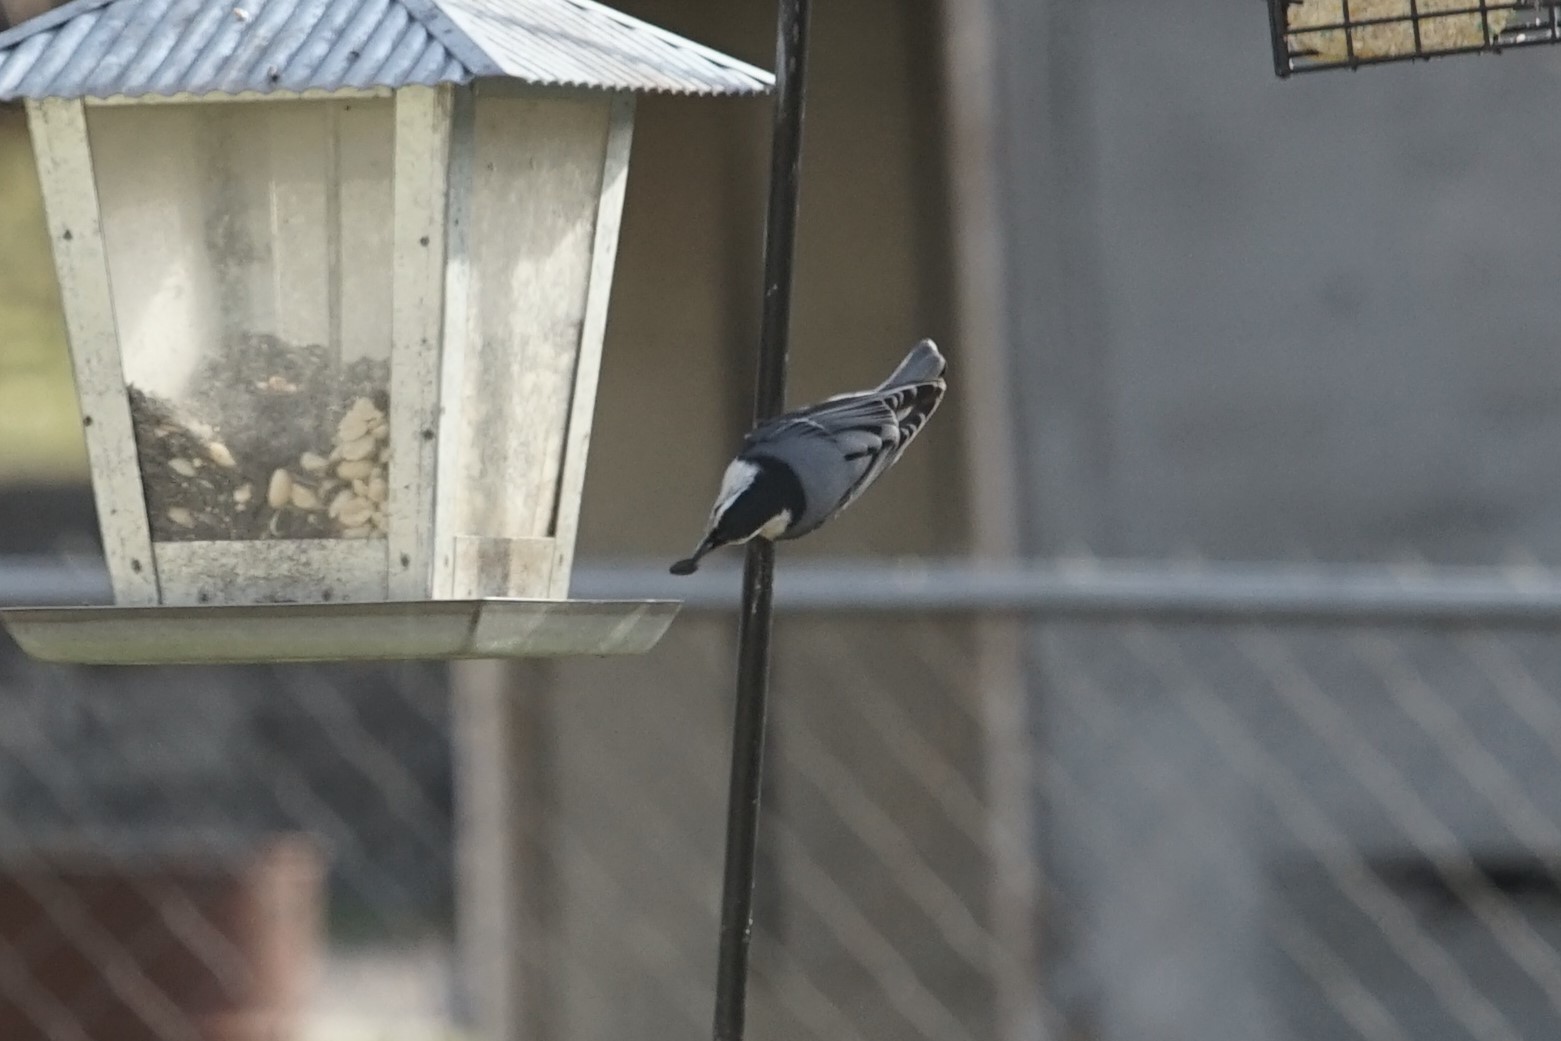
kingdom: Animalia
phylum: Chordata
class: Aves
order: Passeriformes
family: Sittidae
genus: Sitta
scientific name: Sitta carolinensis
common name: White-breasted nuthatch
